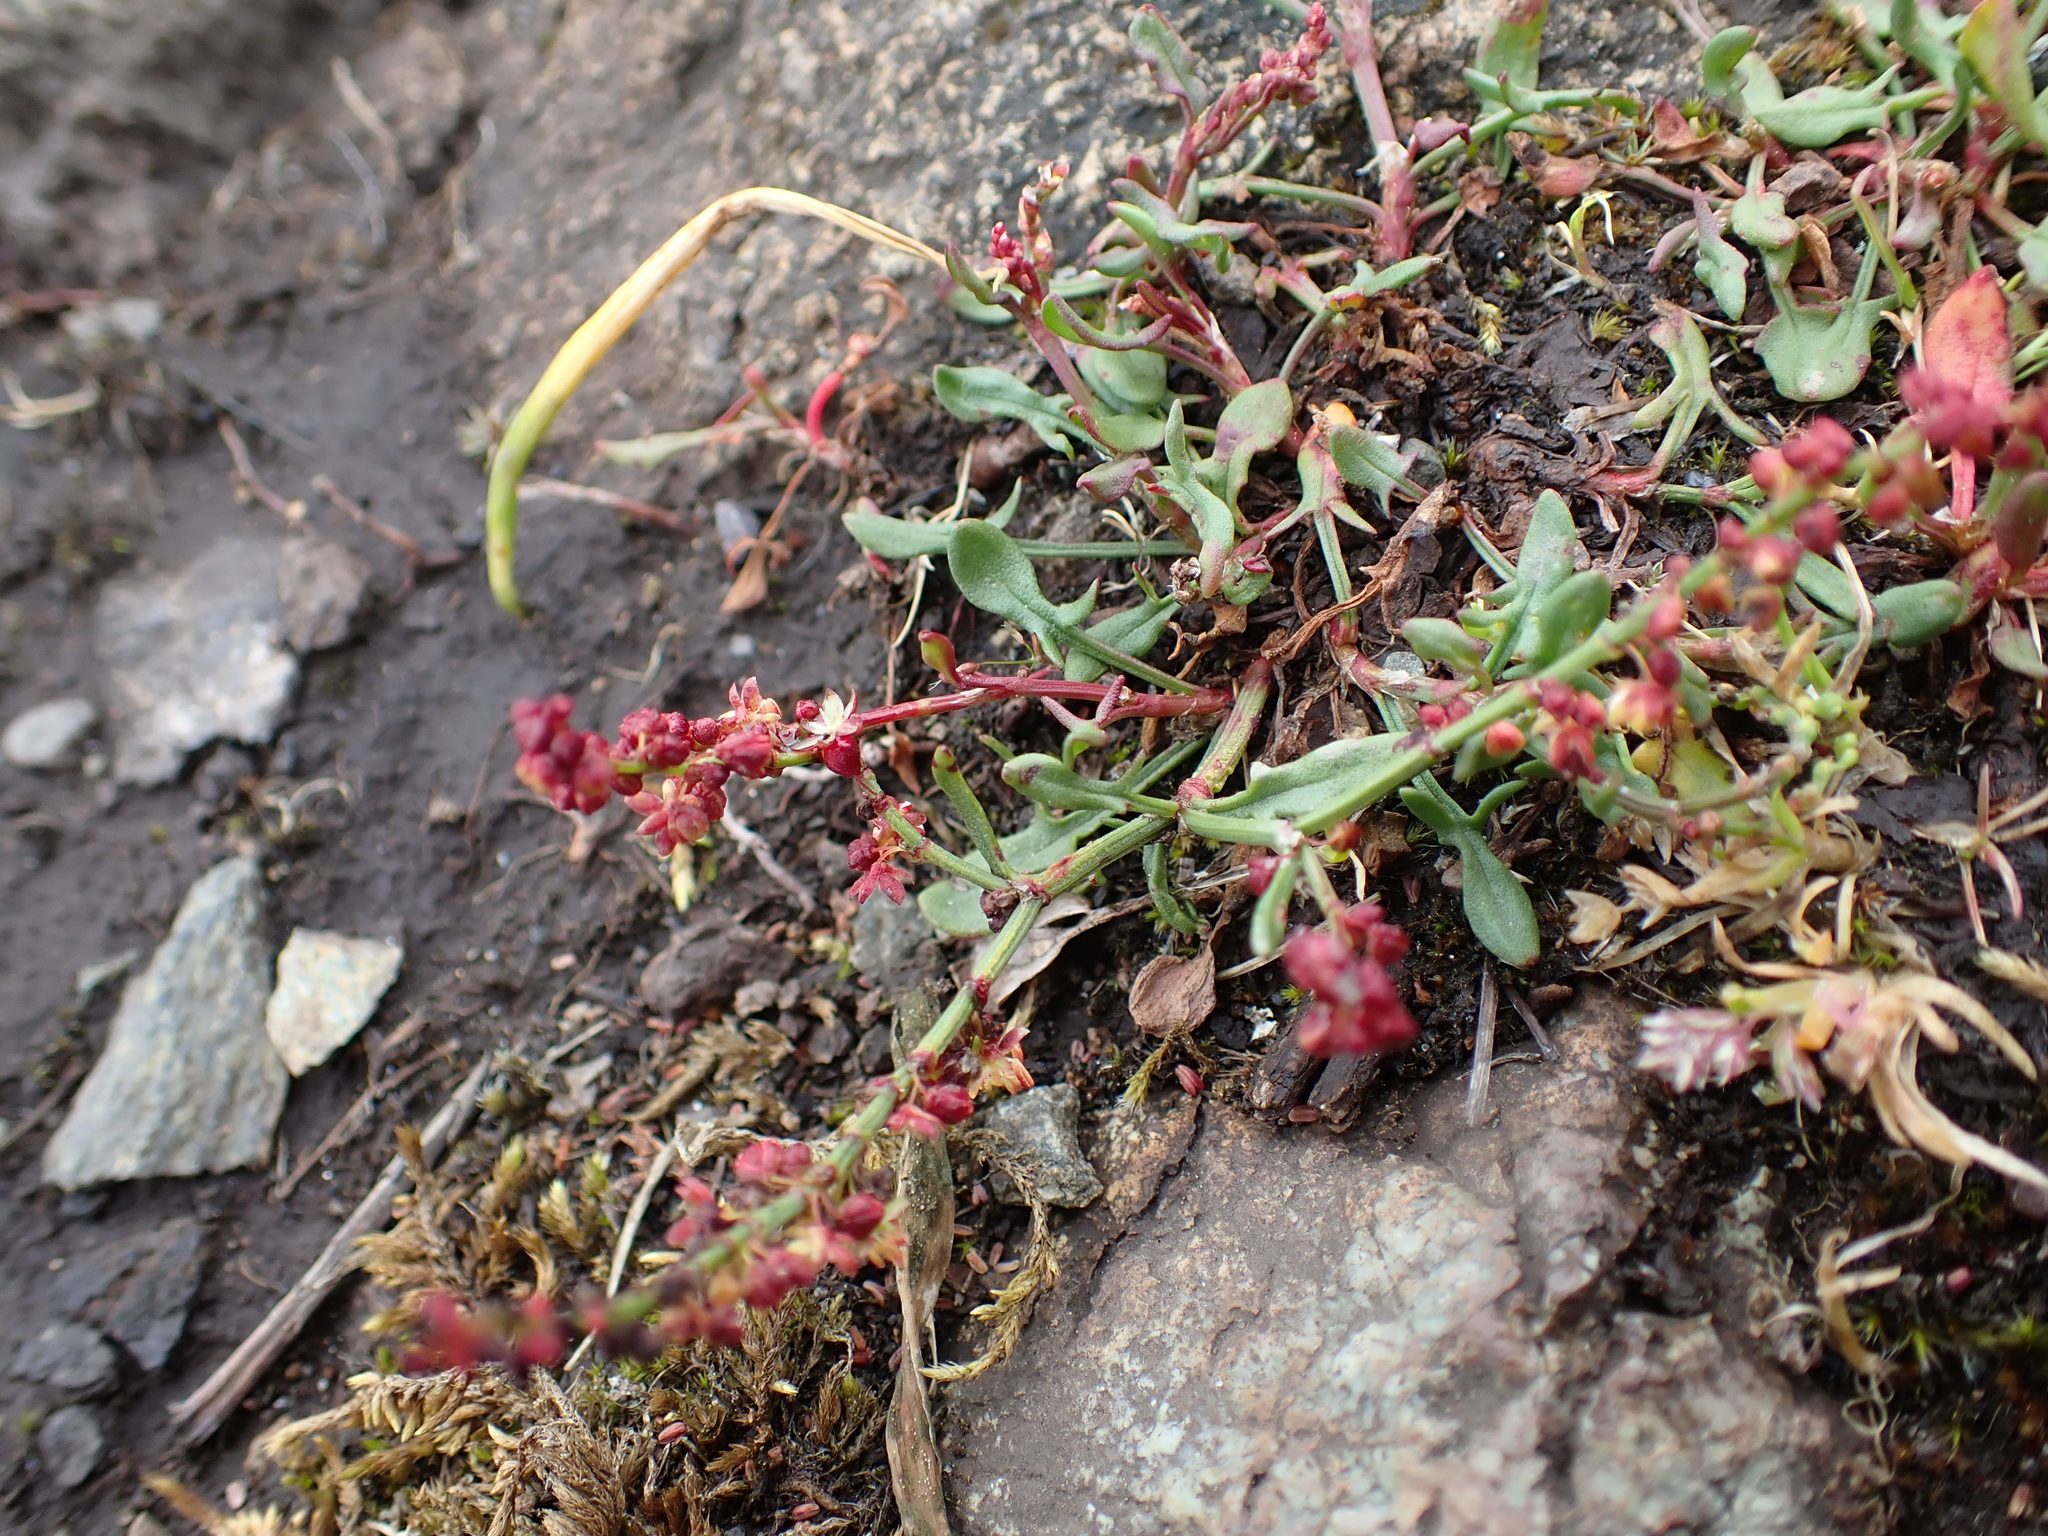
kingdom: Plantae
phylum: Tracheophyta
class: Magnoliopsida
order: Caryophyllales
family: Polygonaceae
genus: Rumex
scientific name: Rumex acetosella
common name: Common sheep sorrel
